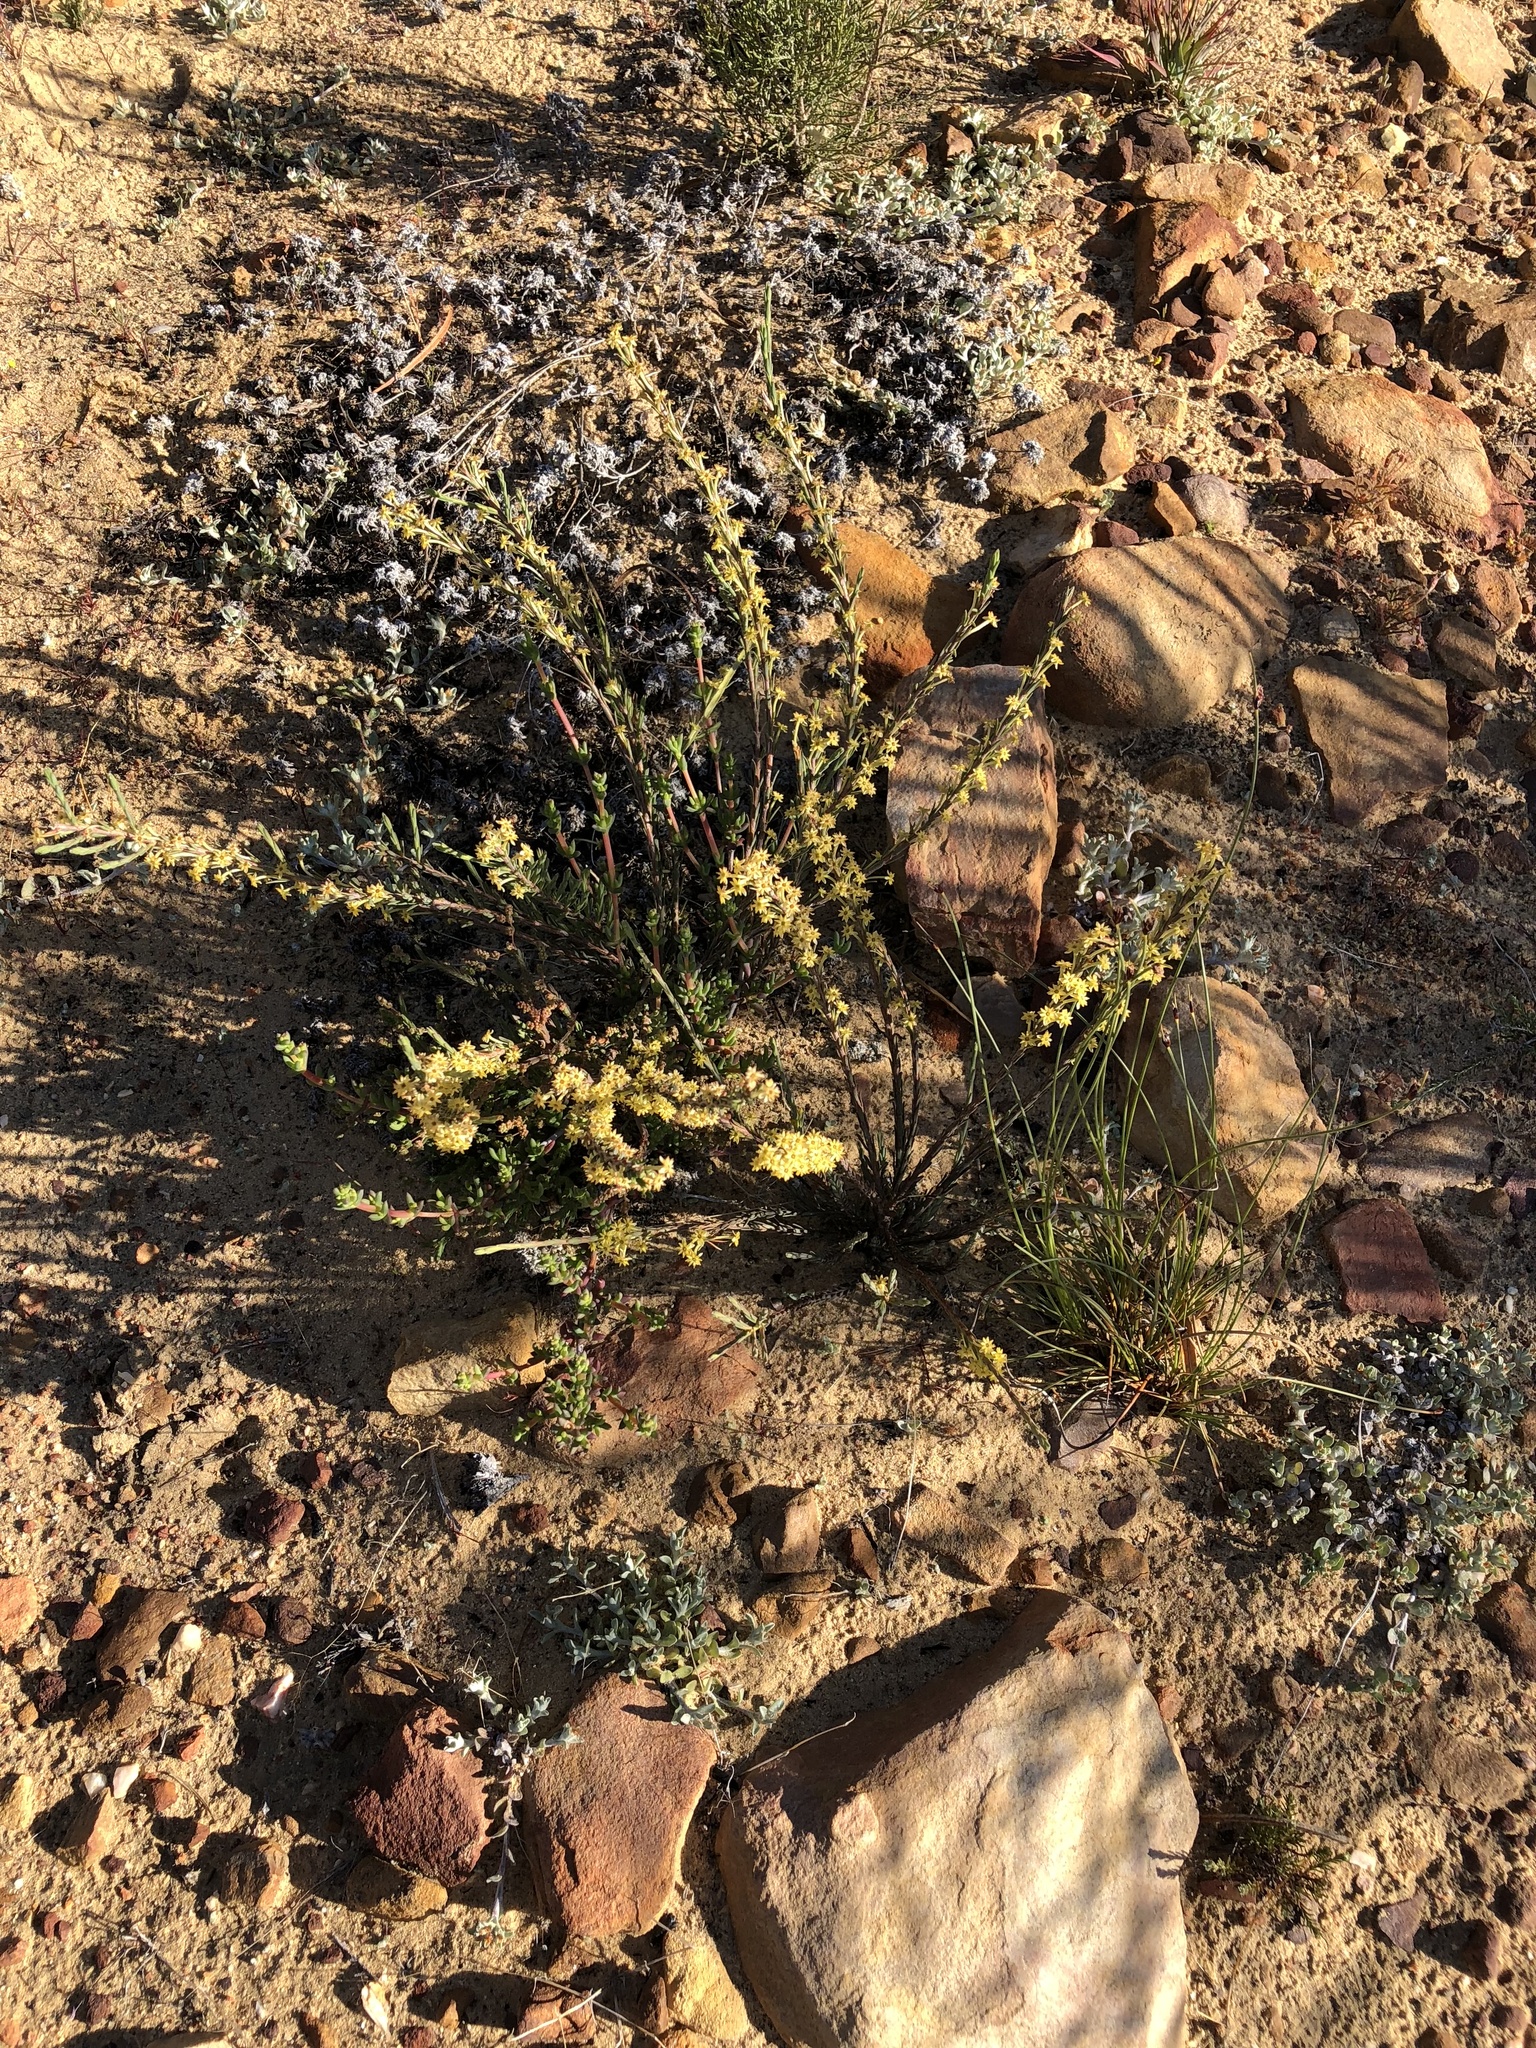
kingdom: Plantae
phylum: Tracheophyta
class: Magnoliopsida
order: Malvales
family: Thymelaeaceae
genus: Struthiola
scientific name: Struthiola eckloniana
